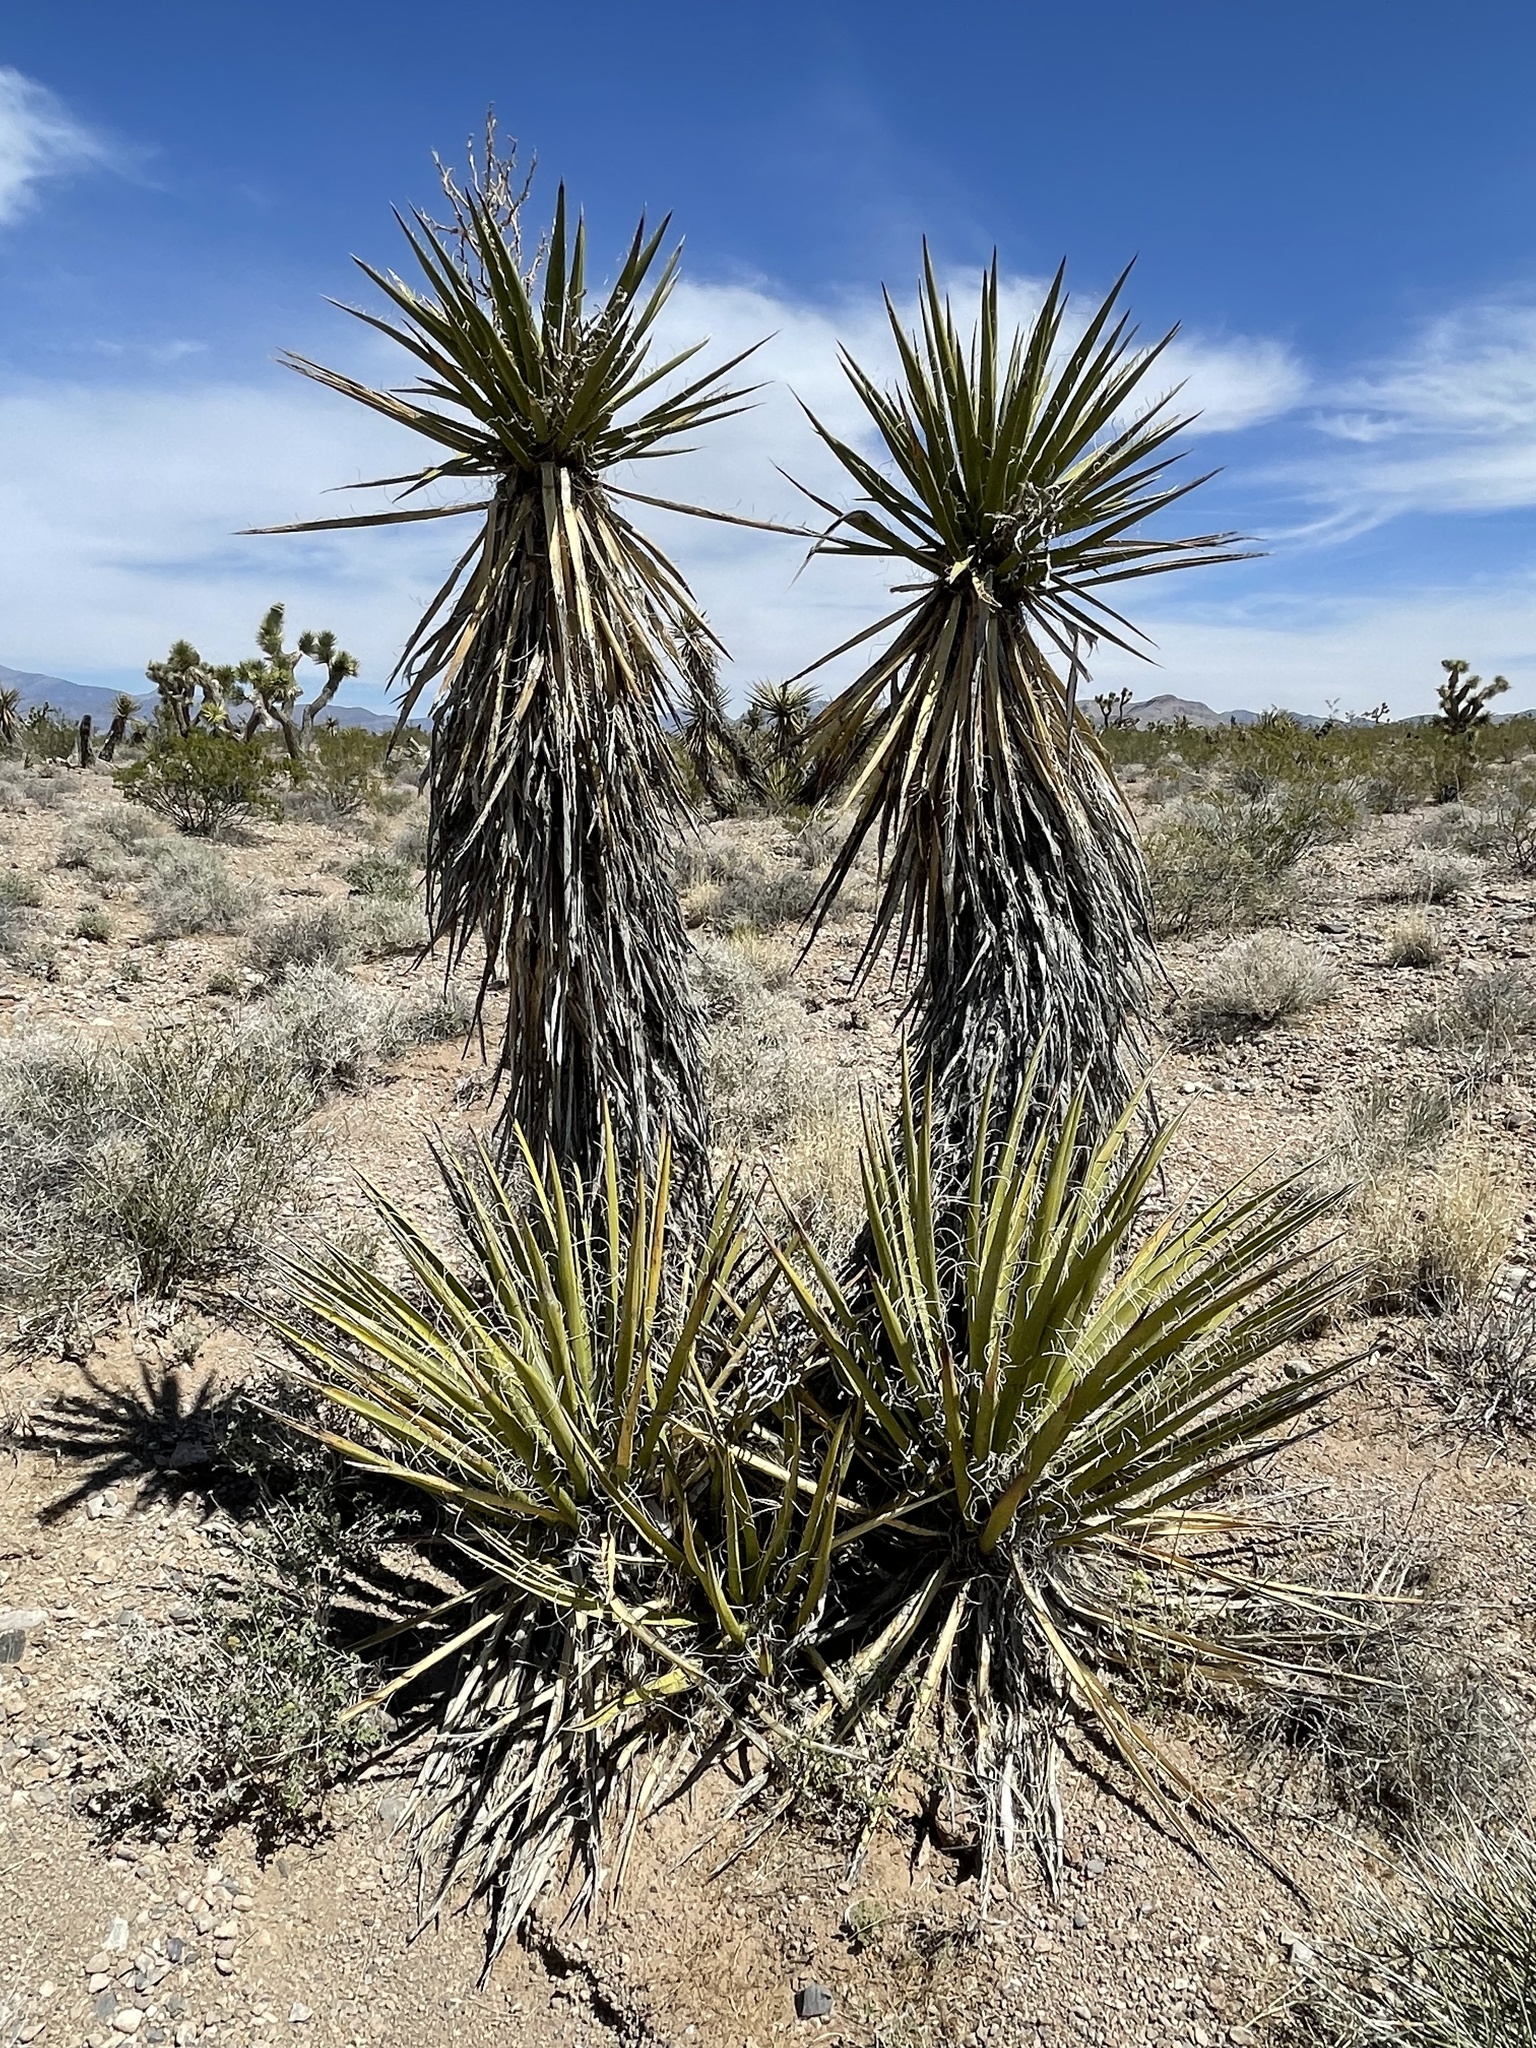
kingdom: Plantae
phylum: Tracheophyta
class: Liliopsida
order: Asparagales
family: Asparagaceae
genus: Yucca
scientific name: Yucca schidigera
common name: Mojave yucca
